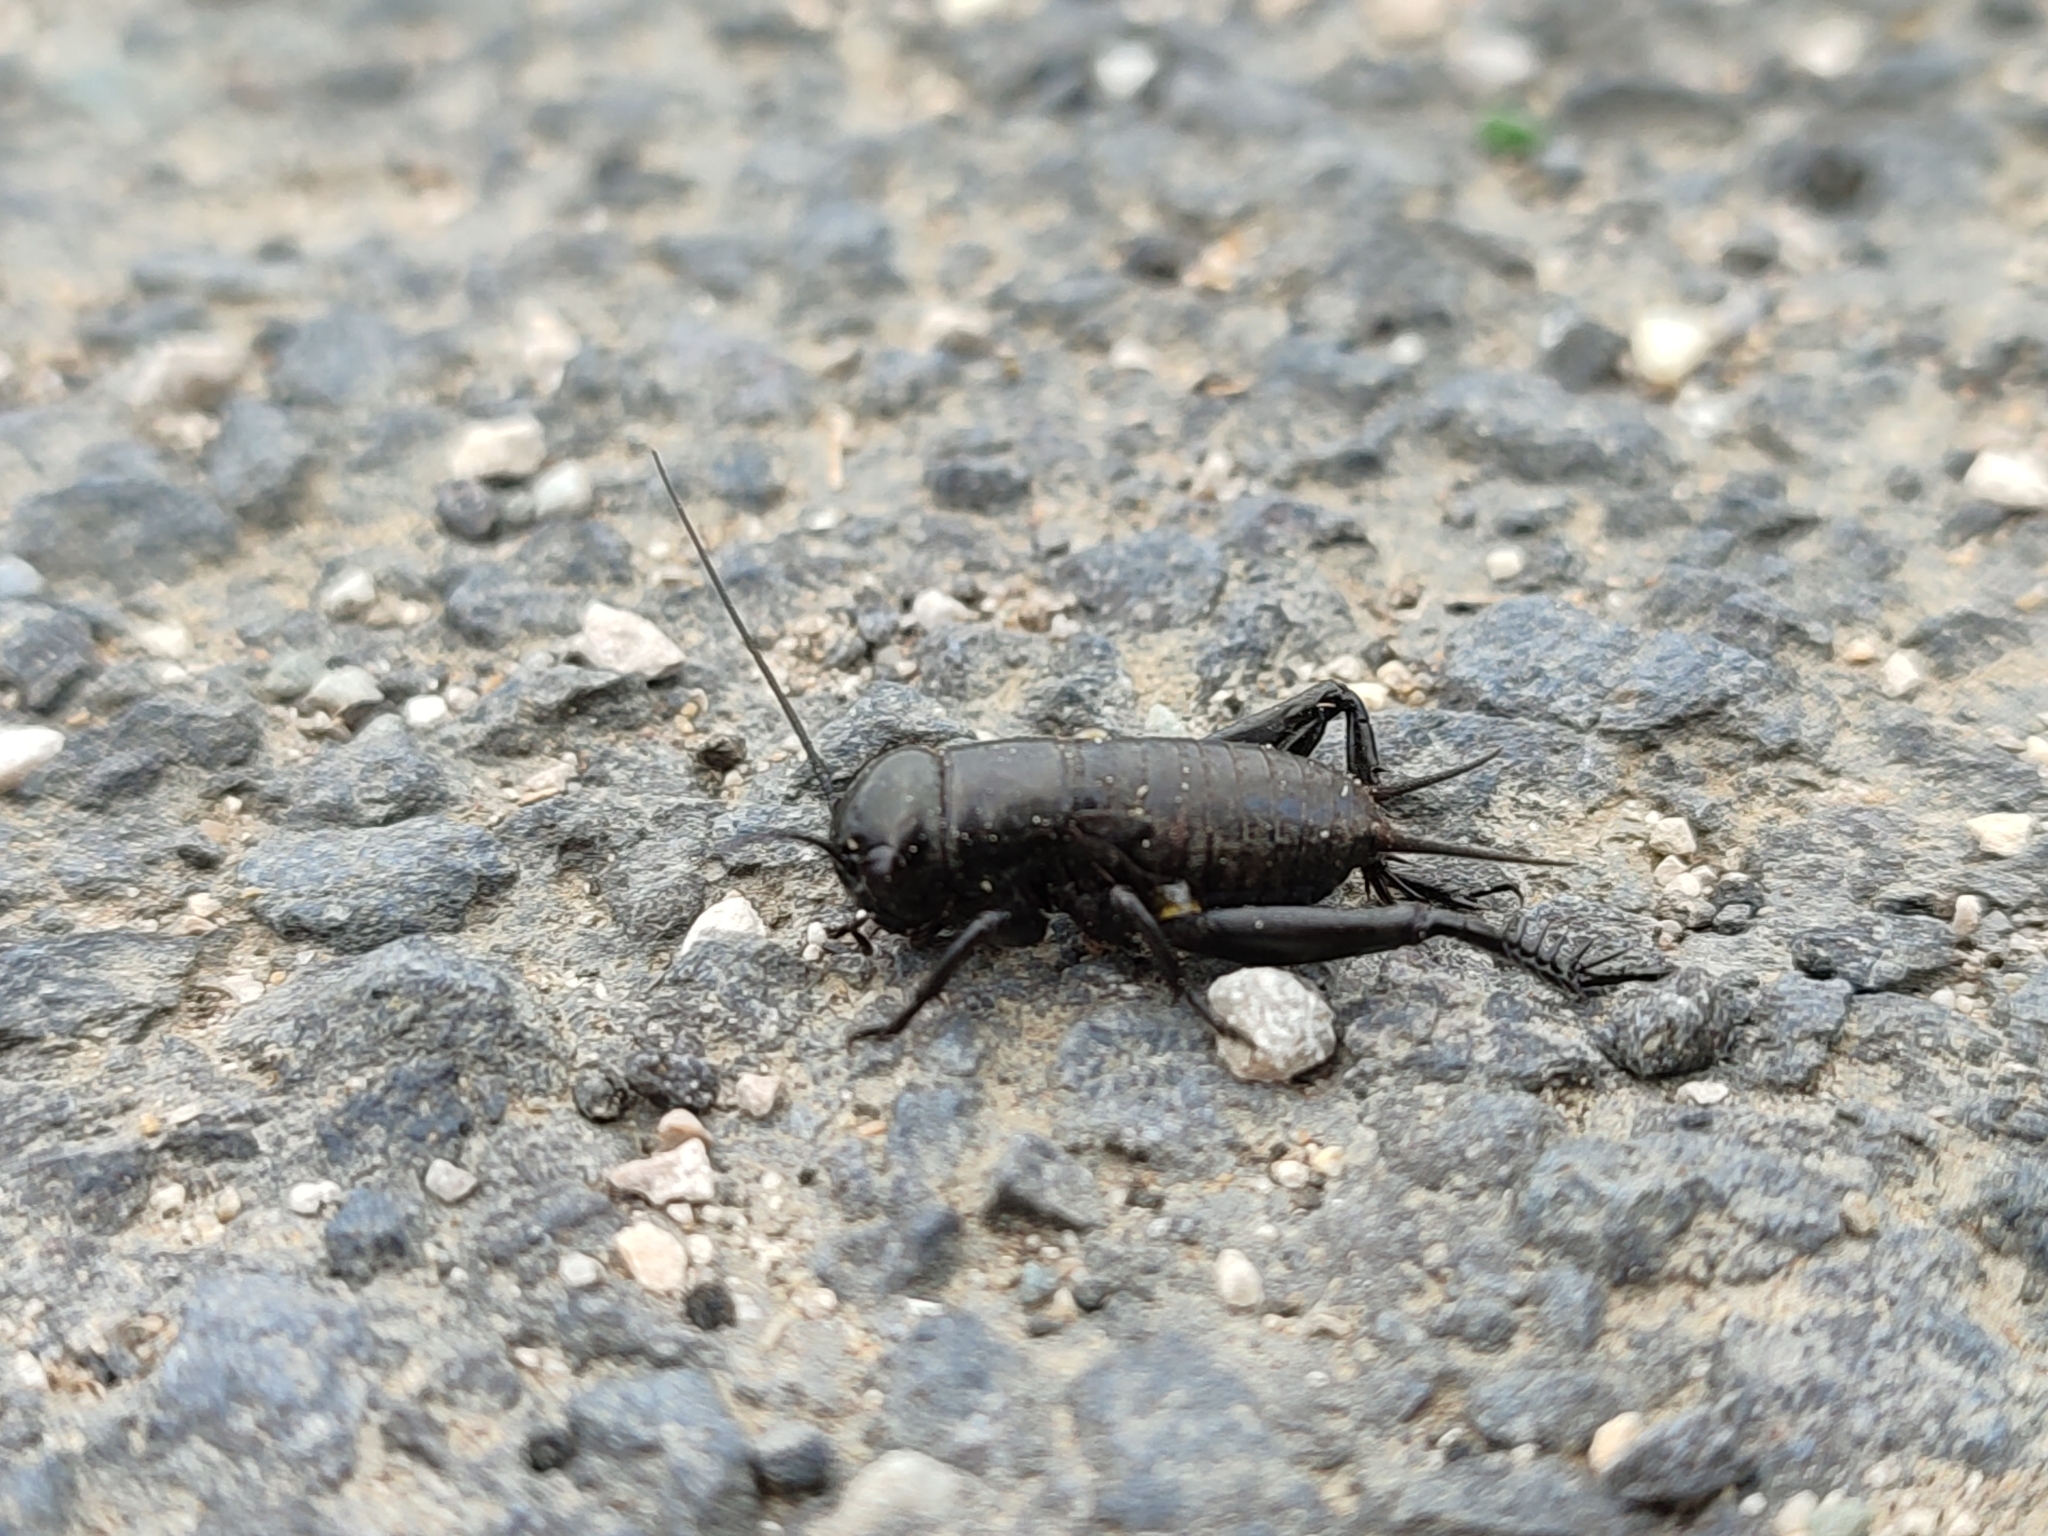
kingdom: Animalia
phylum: Arthropoda
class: Insecta
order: Orthoptera
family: Gryllidae
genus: Gryllus
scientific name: Gryllus campestris
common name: Field cricket
